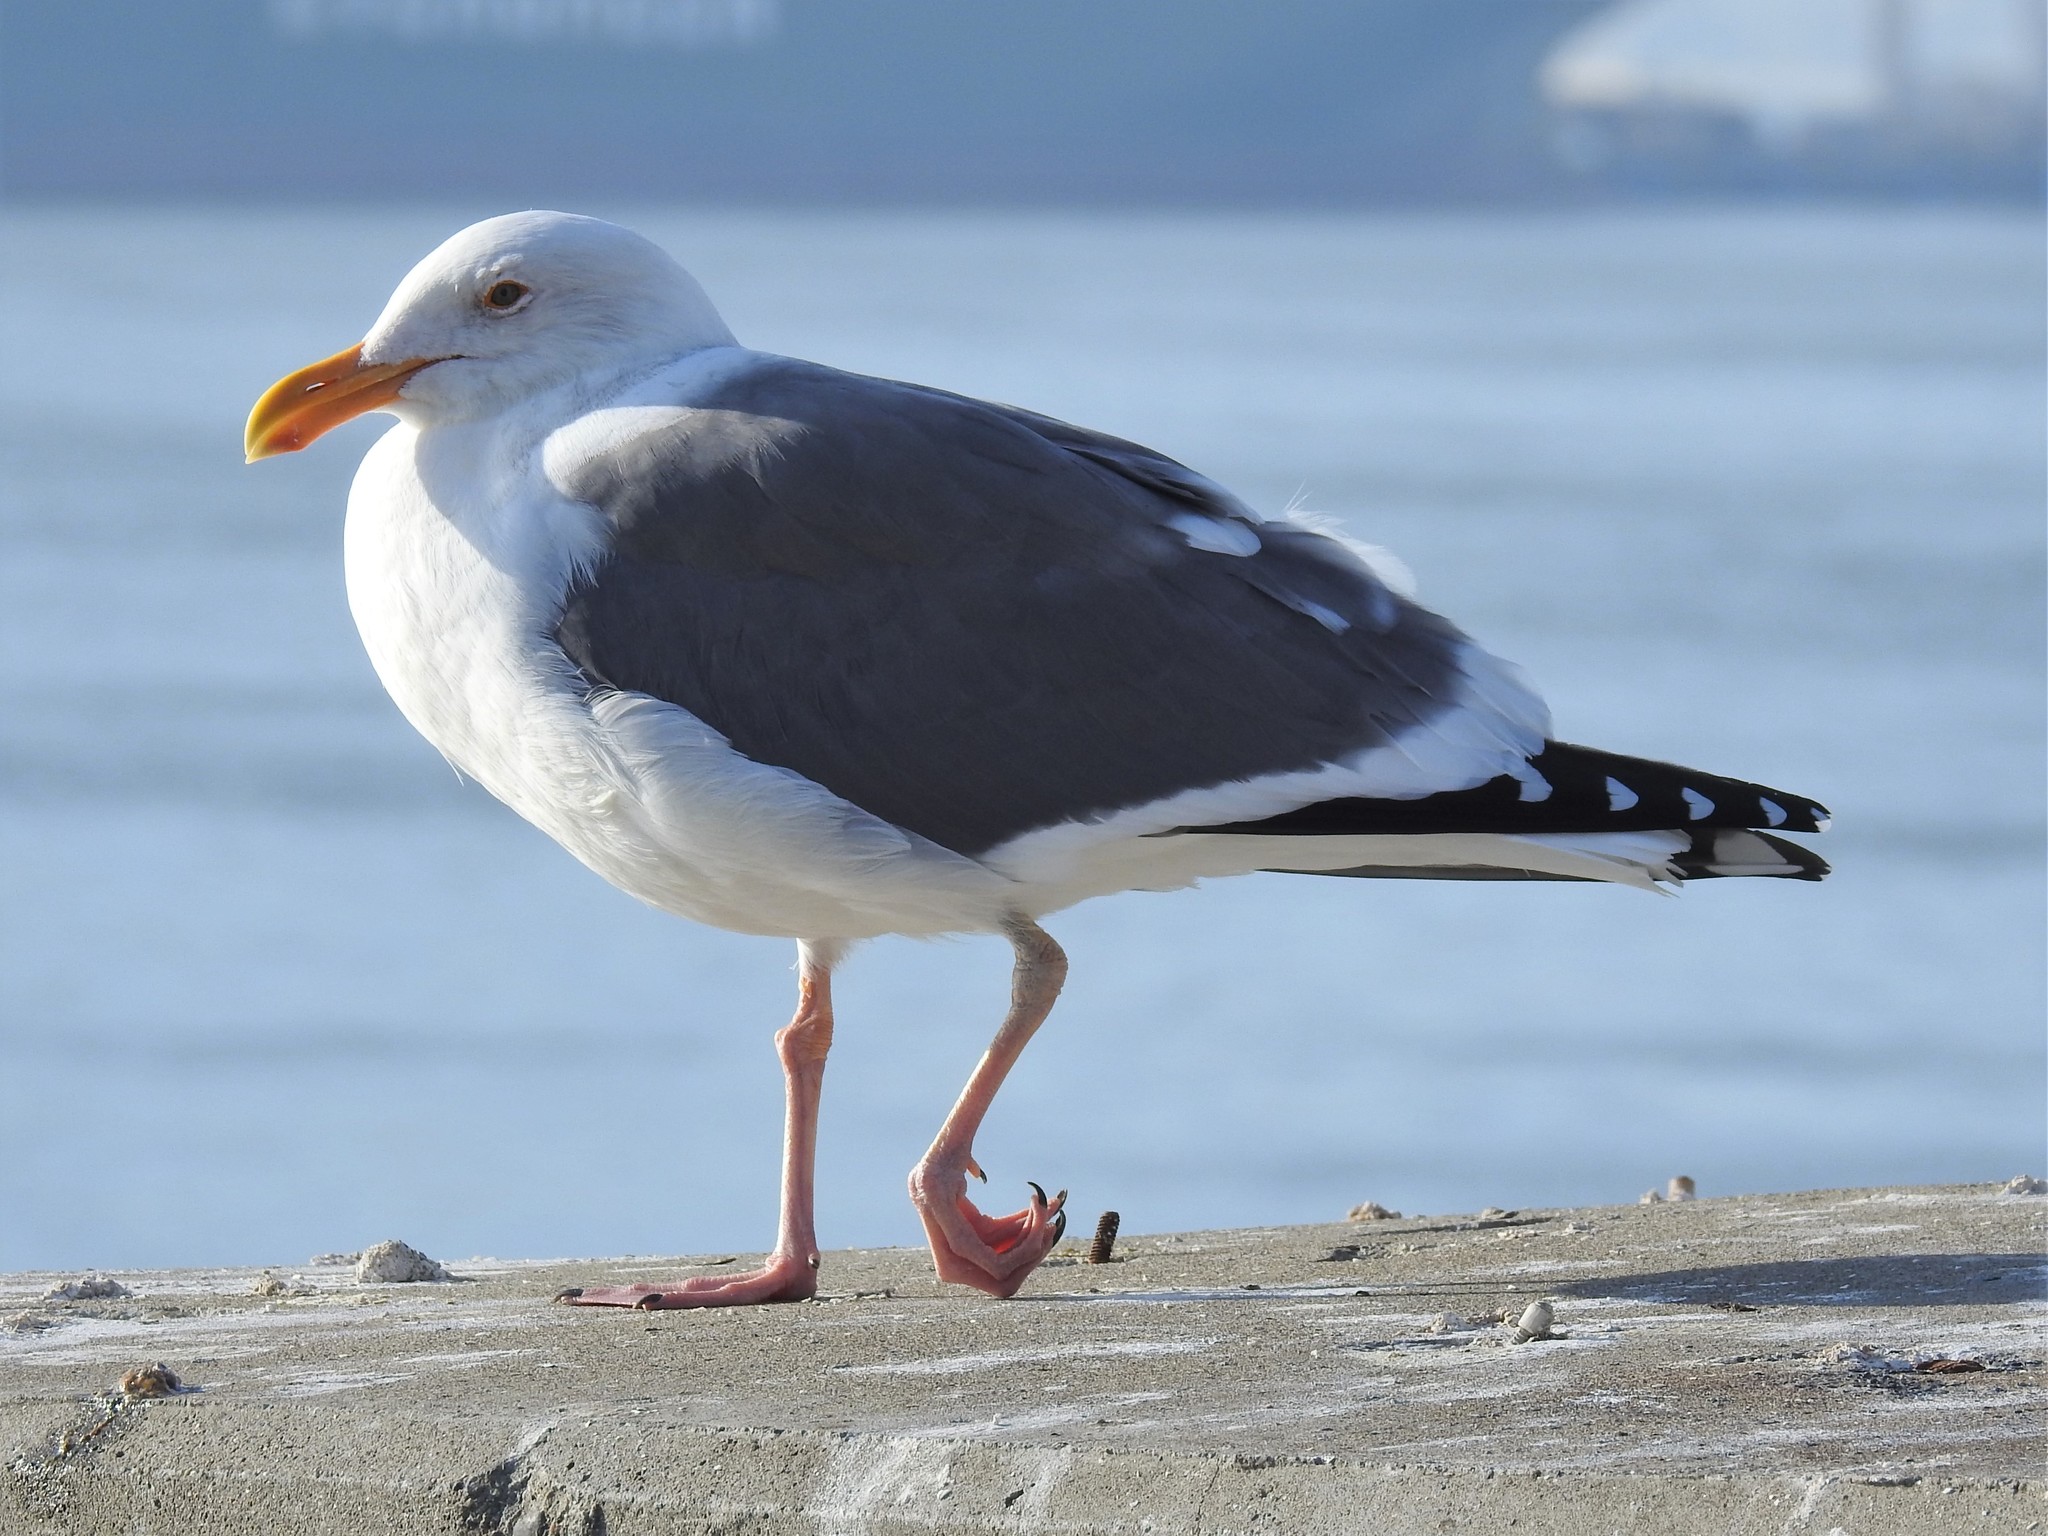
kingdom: Animalia
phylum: Chordata
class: Aves
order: Charadriiformes
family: Laridae
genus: Larus
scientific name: Larus occidentalis
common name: Western gull
